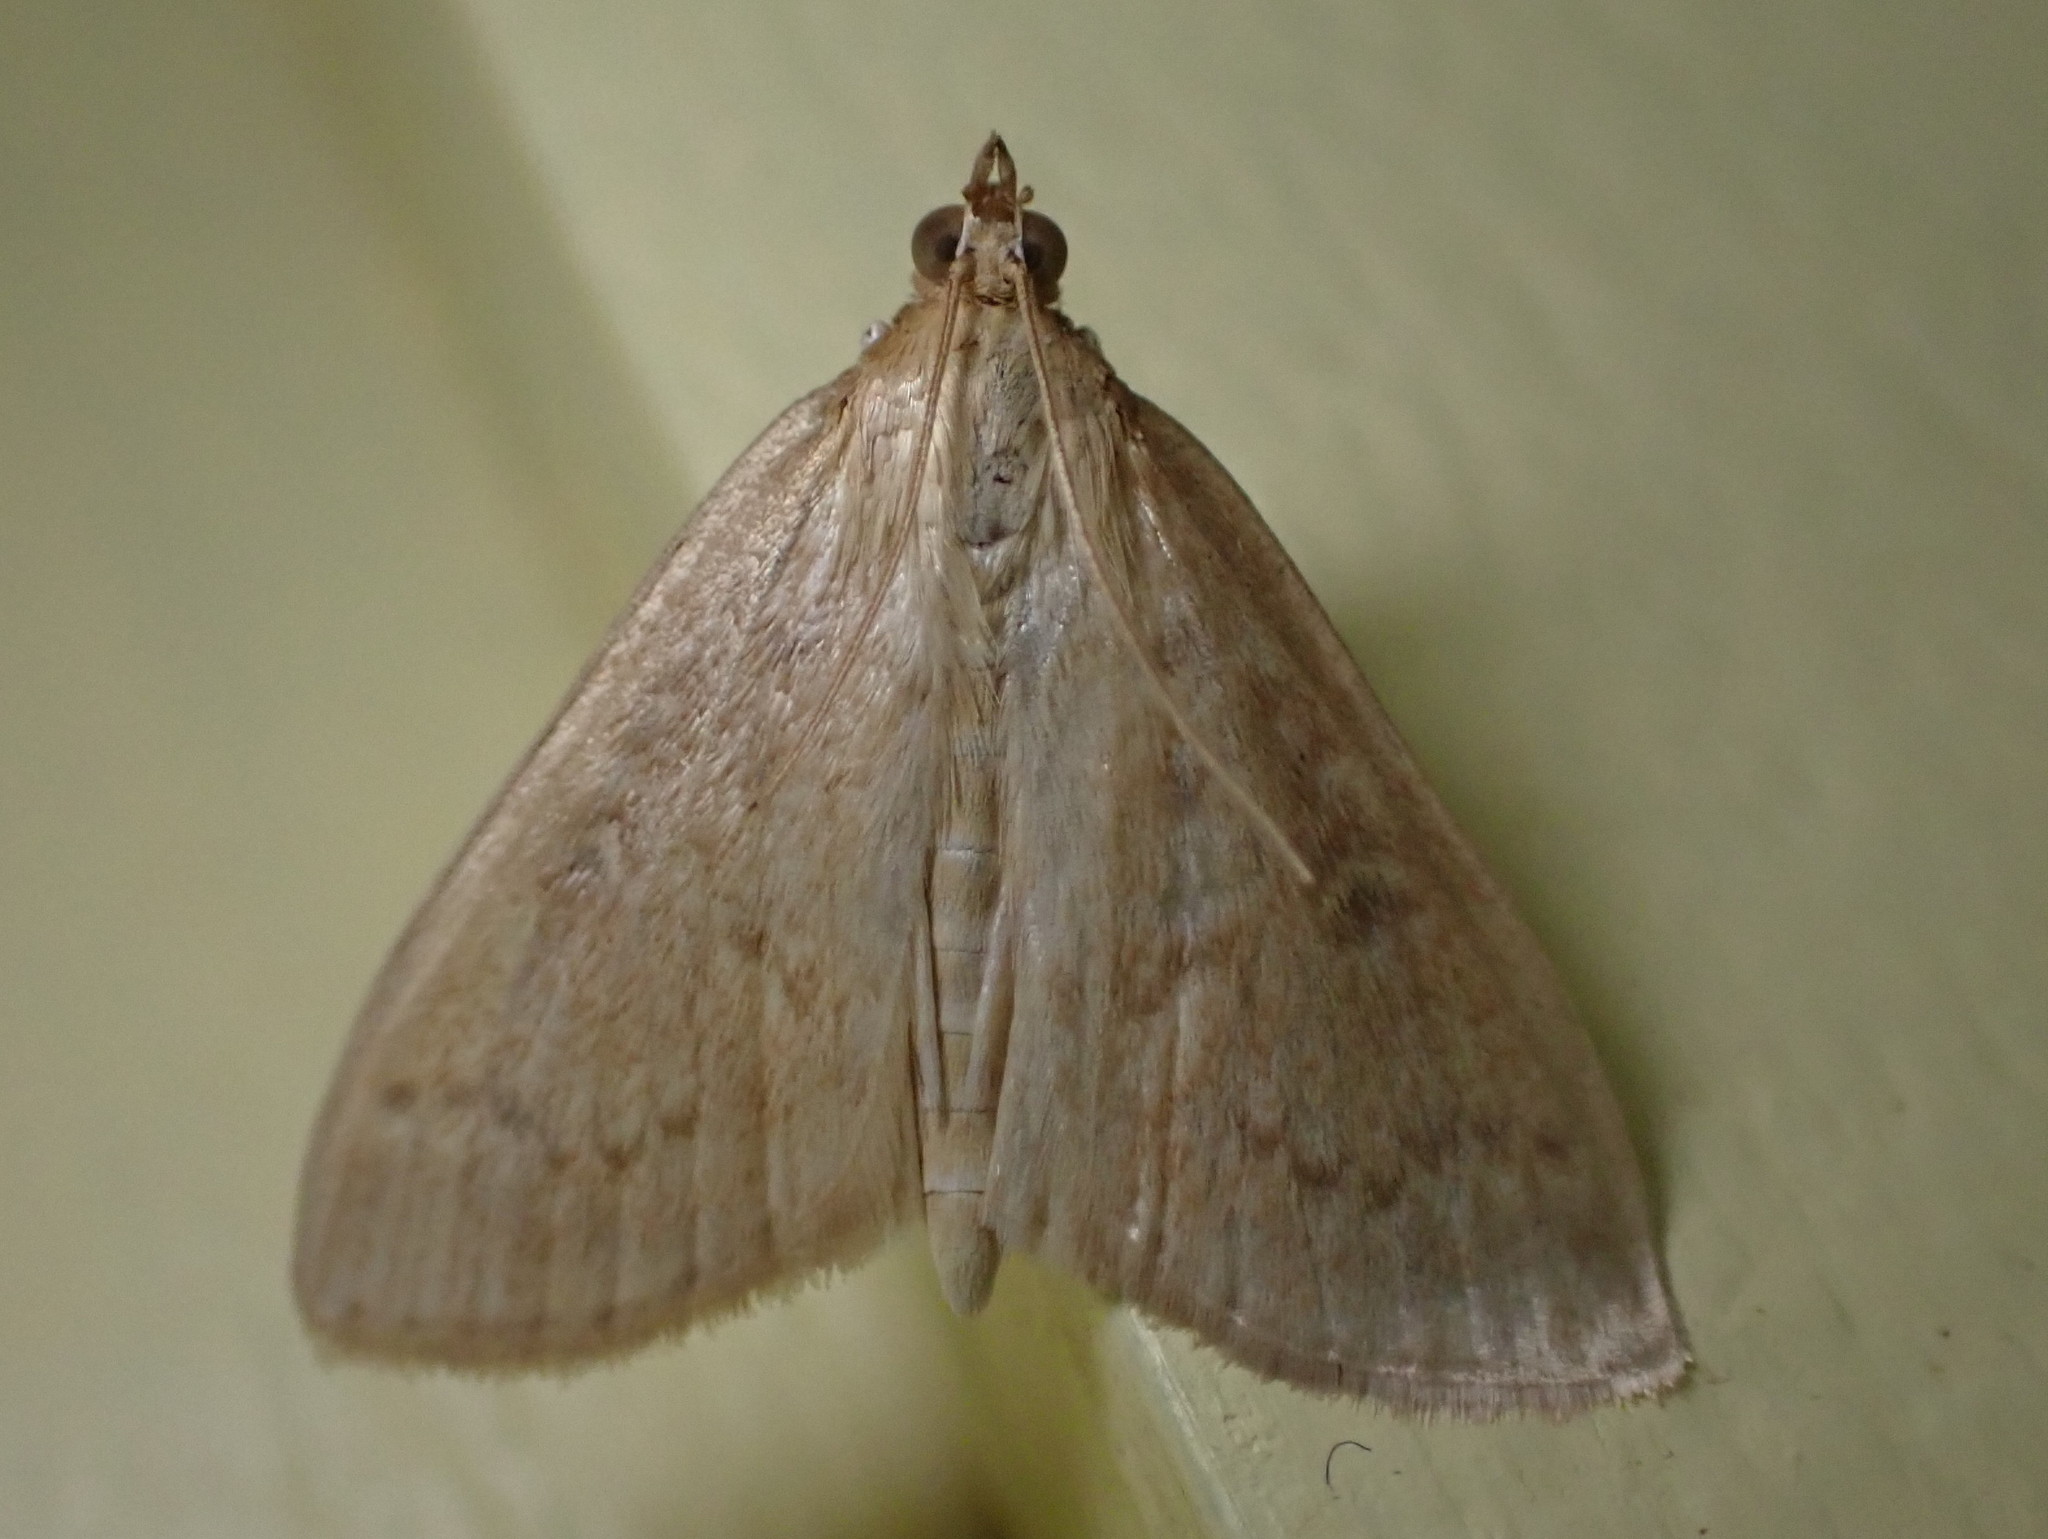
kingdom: Animalia
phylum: Arthropoda
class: Insecta
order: Lepidoptera
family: Crambidae
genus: Anania
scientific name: Anania Framinghamia helvalis
